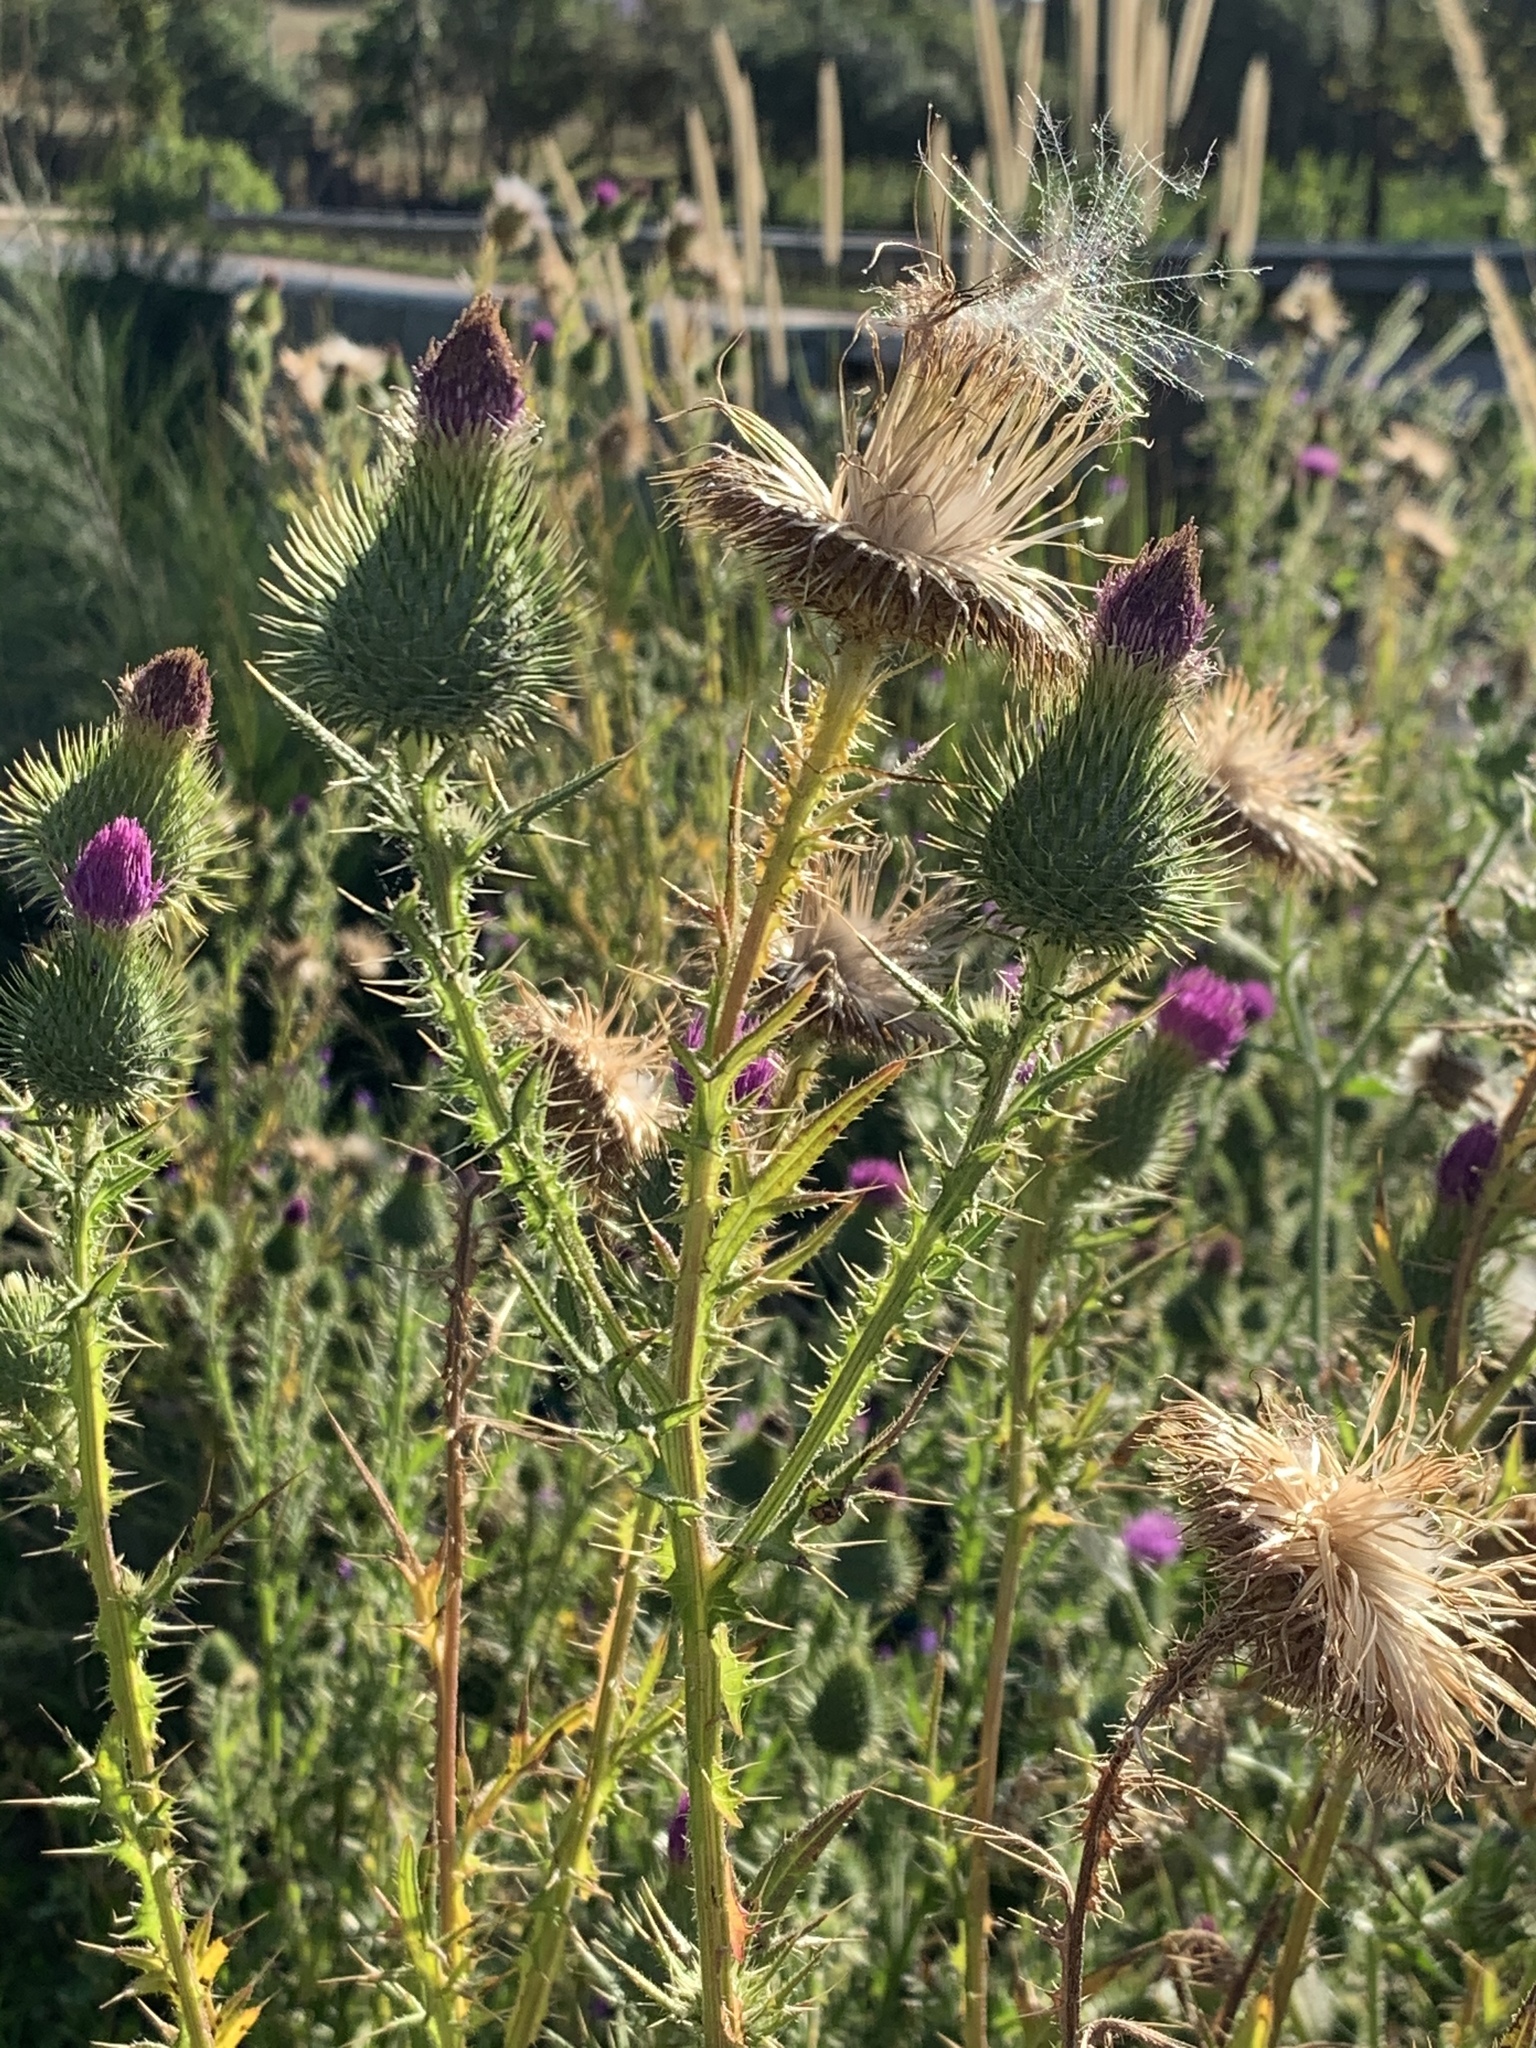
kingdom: Plantae
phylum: Tracheophyta
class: Magnoliopsida
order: Asterales
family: Asteraceae
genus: Cirsium
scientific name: Cirsium vulgare
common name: Bull thistle
